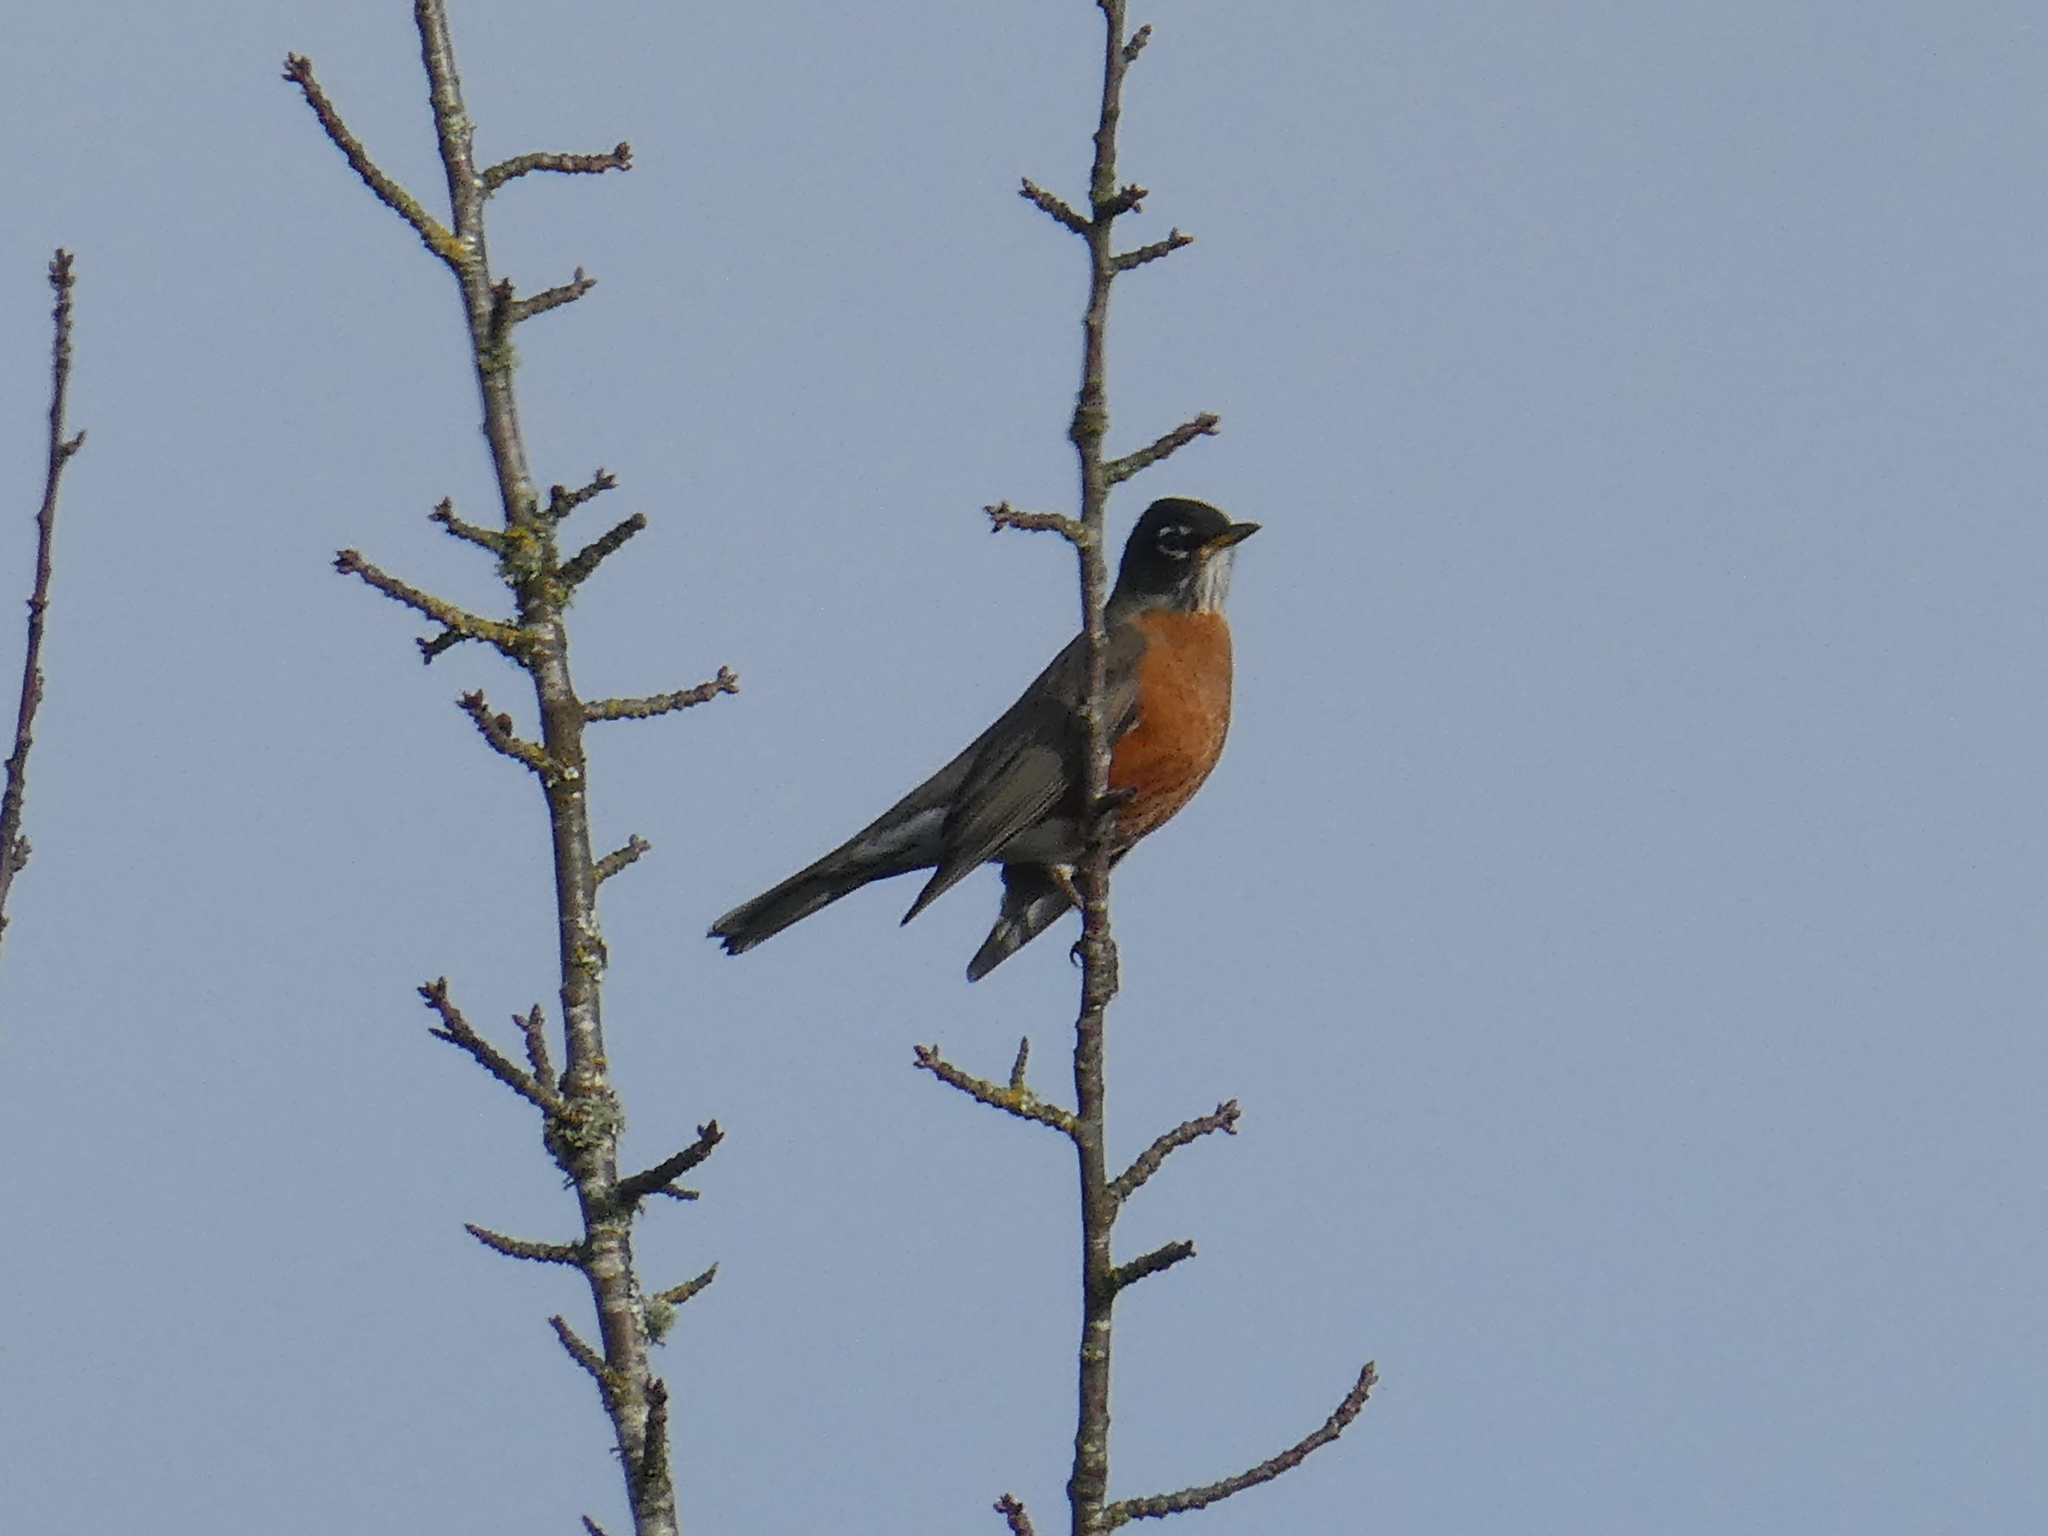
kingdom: Animalia
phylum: Chordata
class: Aves
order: Passeriformes
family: Turdidae
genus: Turdus
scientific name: Turdus migratorius
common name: American robin
